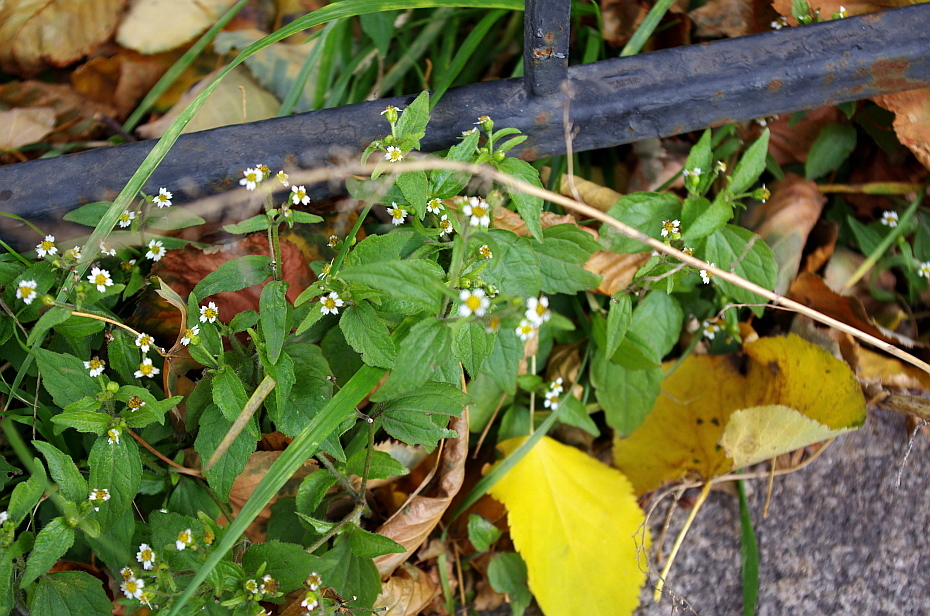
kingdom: Plantae
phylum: Tracheophyta
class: Magnoliopsida
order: Asterales
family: Asteraceae
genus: Galinsoga
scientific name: Galinsoga quadriradiata
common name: Shaggy soldier
